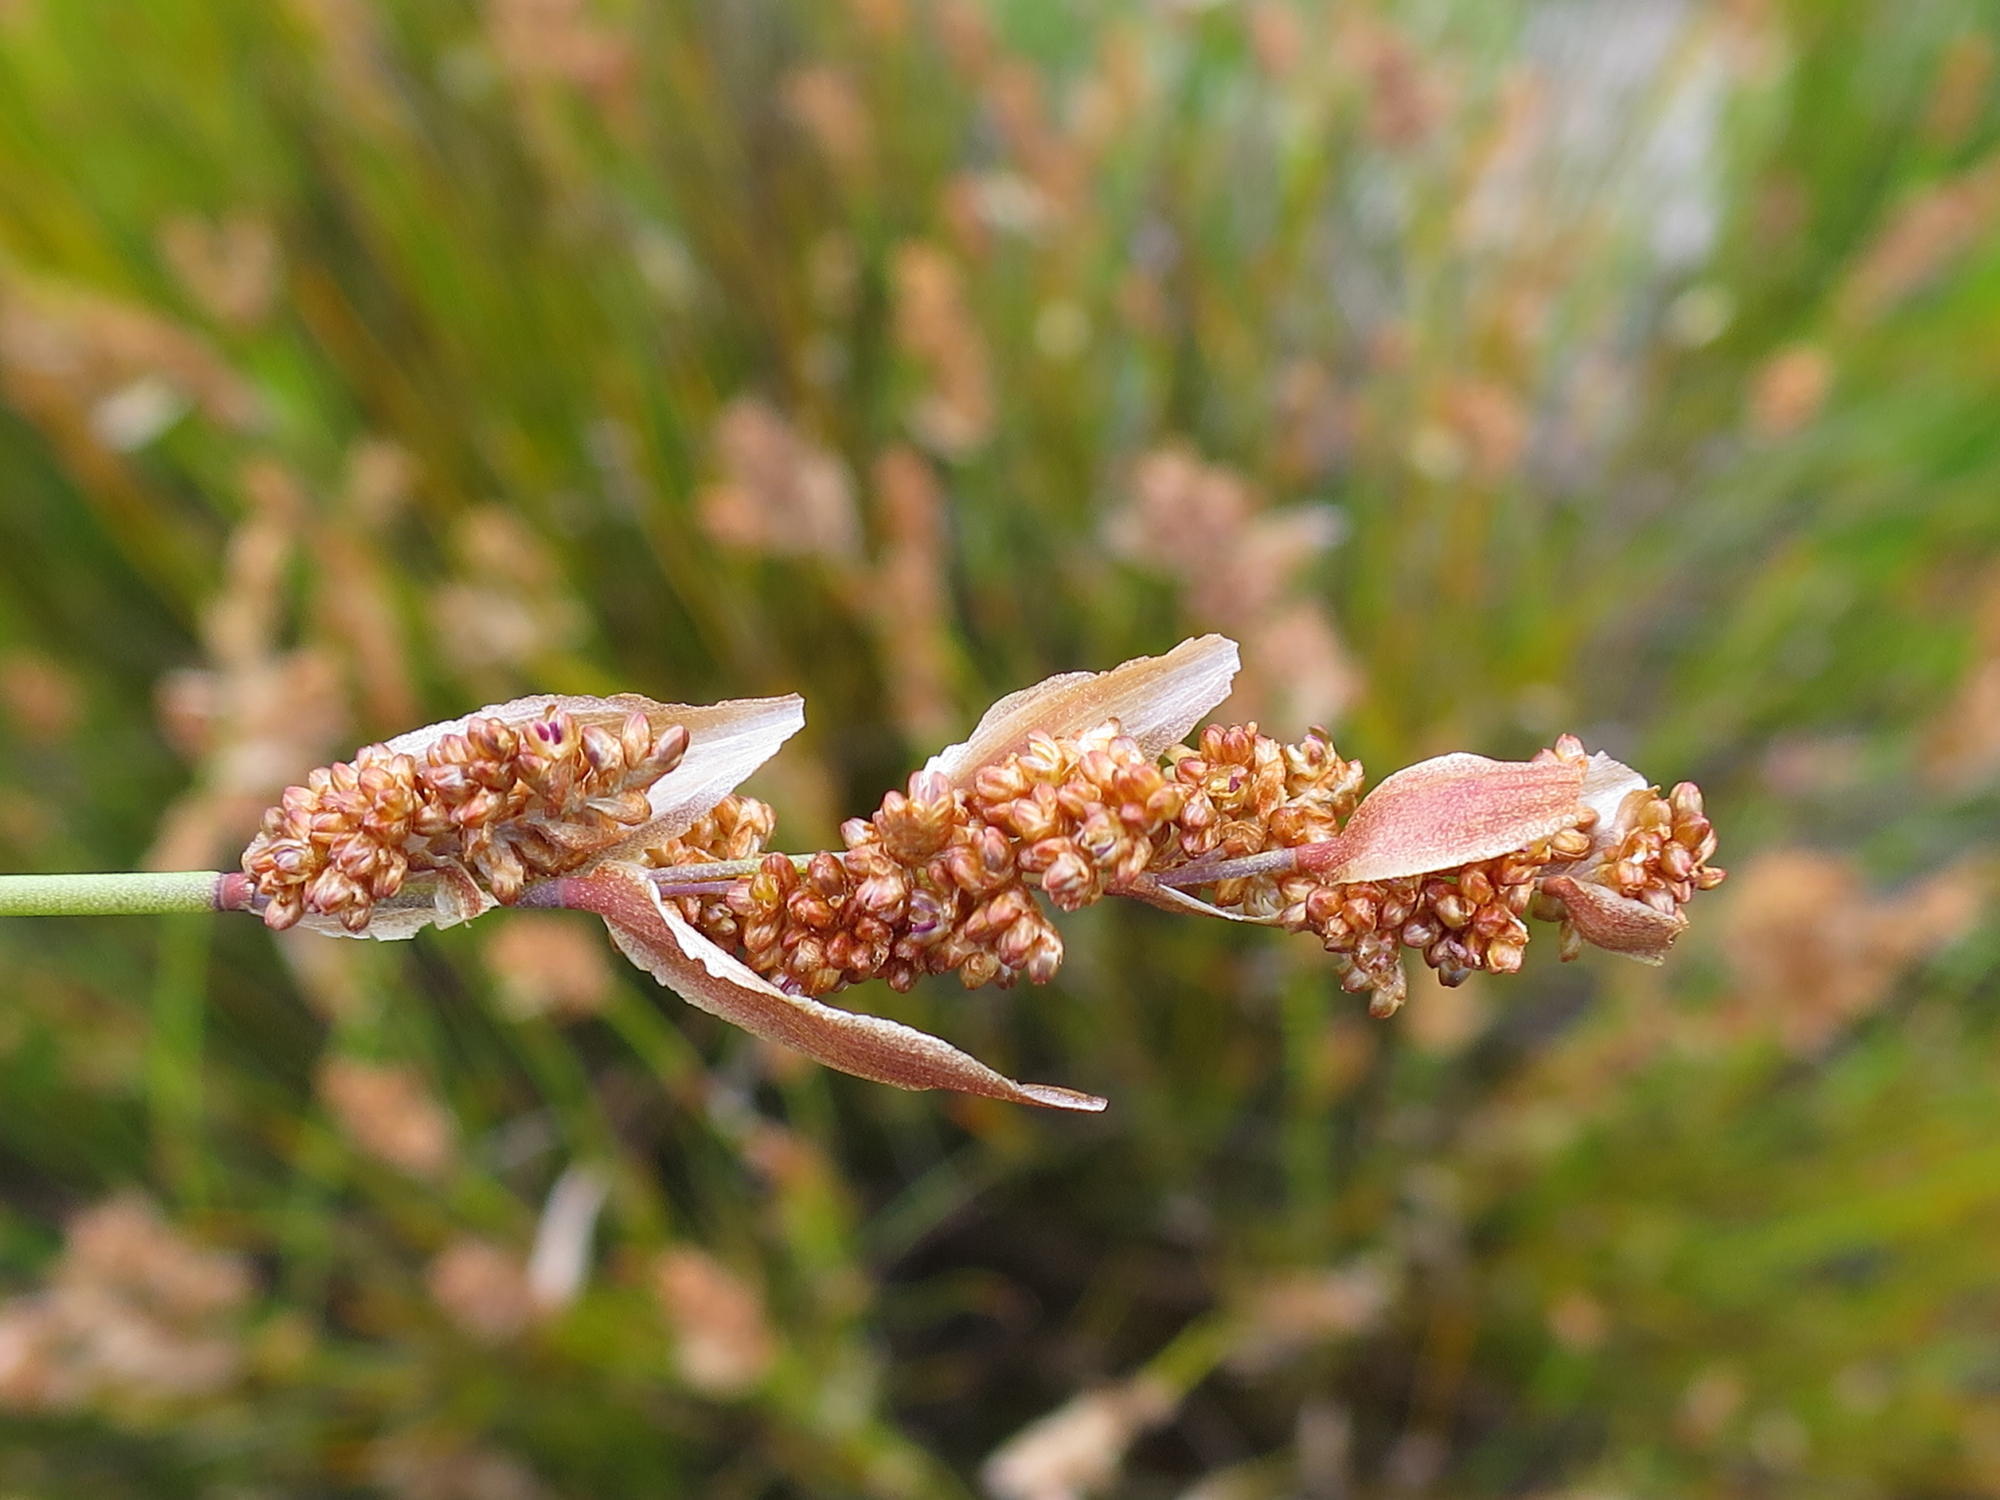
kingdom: Plantae
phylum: Tracheophyta
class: Liliopsida
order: Poales
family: Restionaceae
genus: Elegia
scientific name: Elegia stipularis
